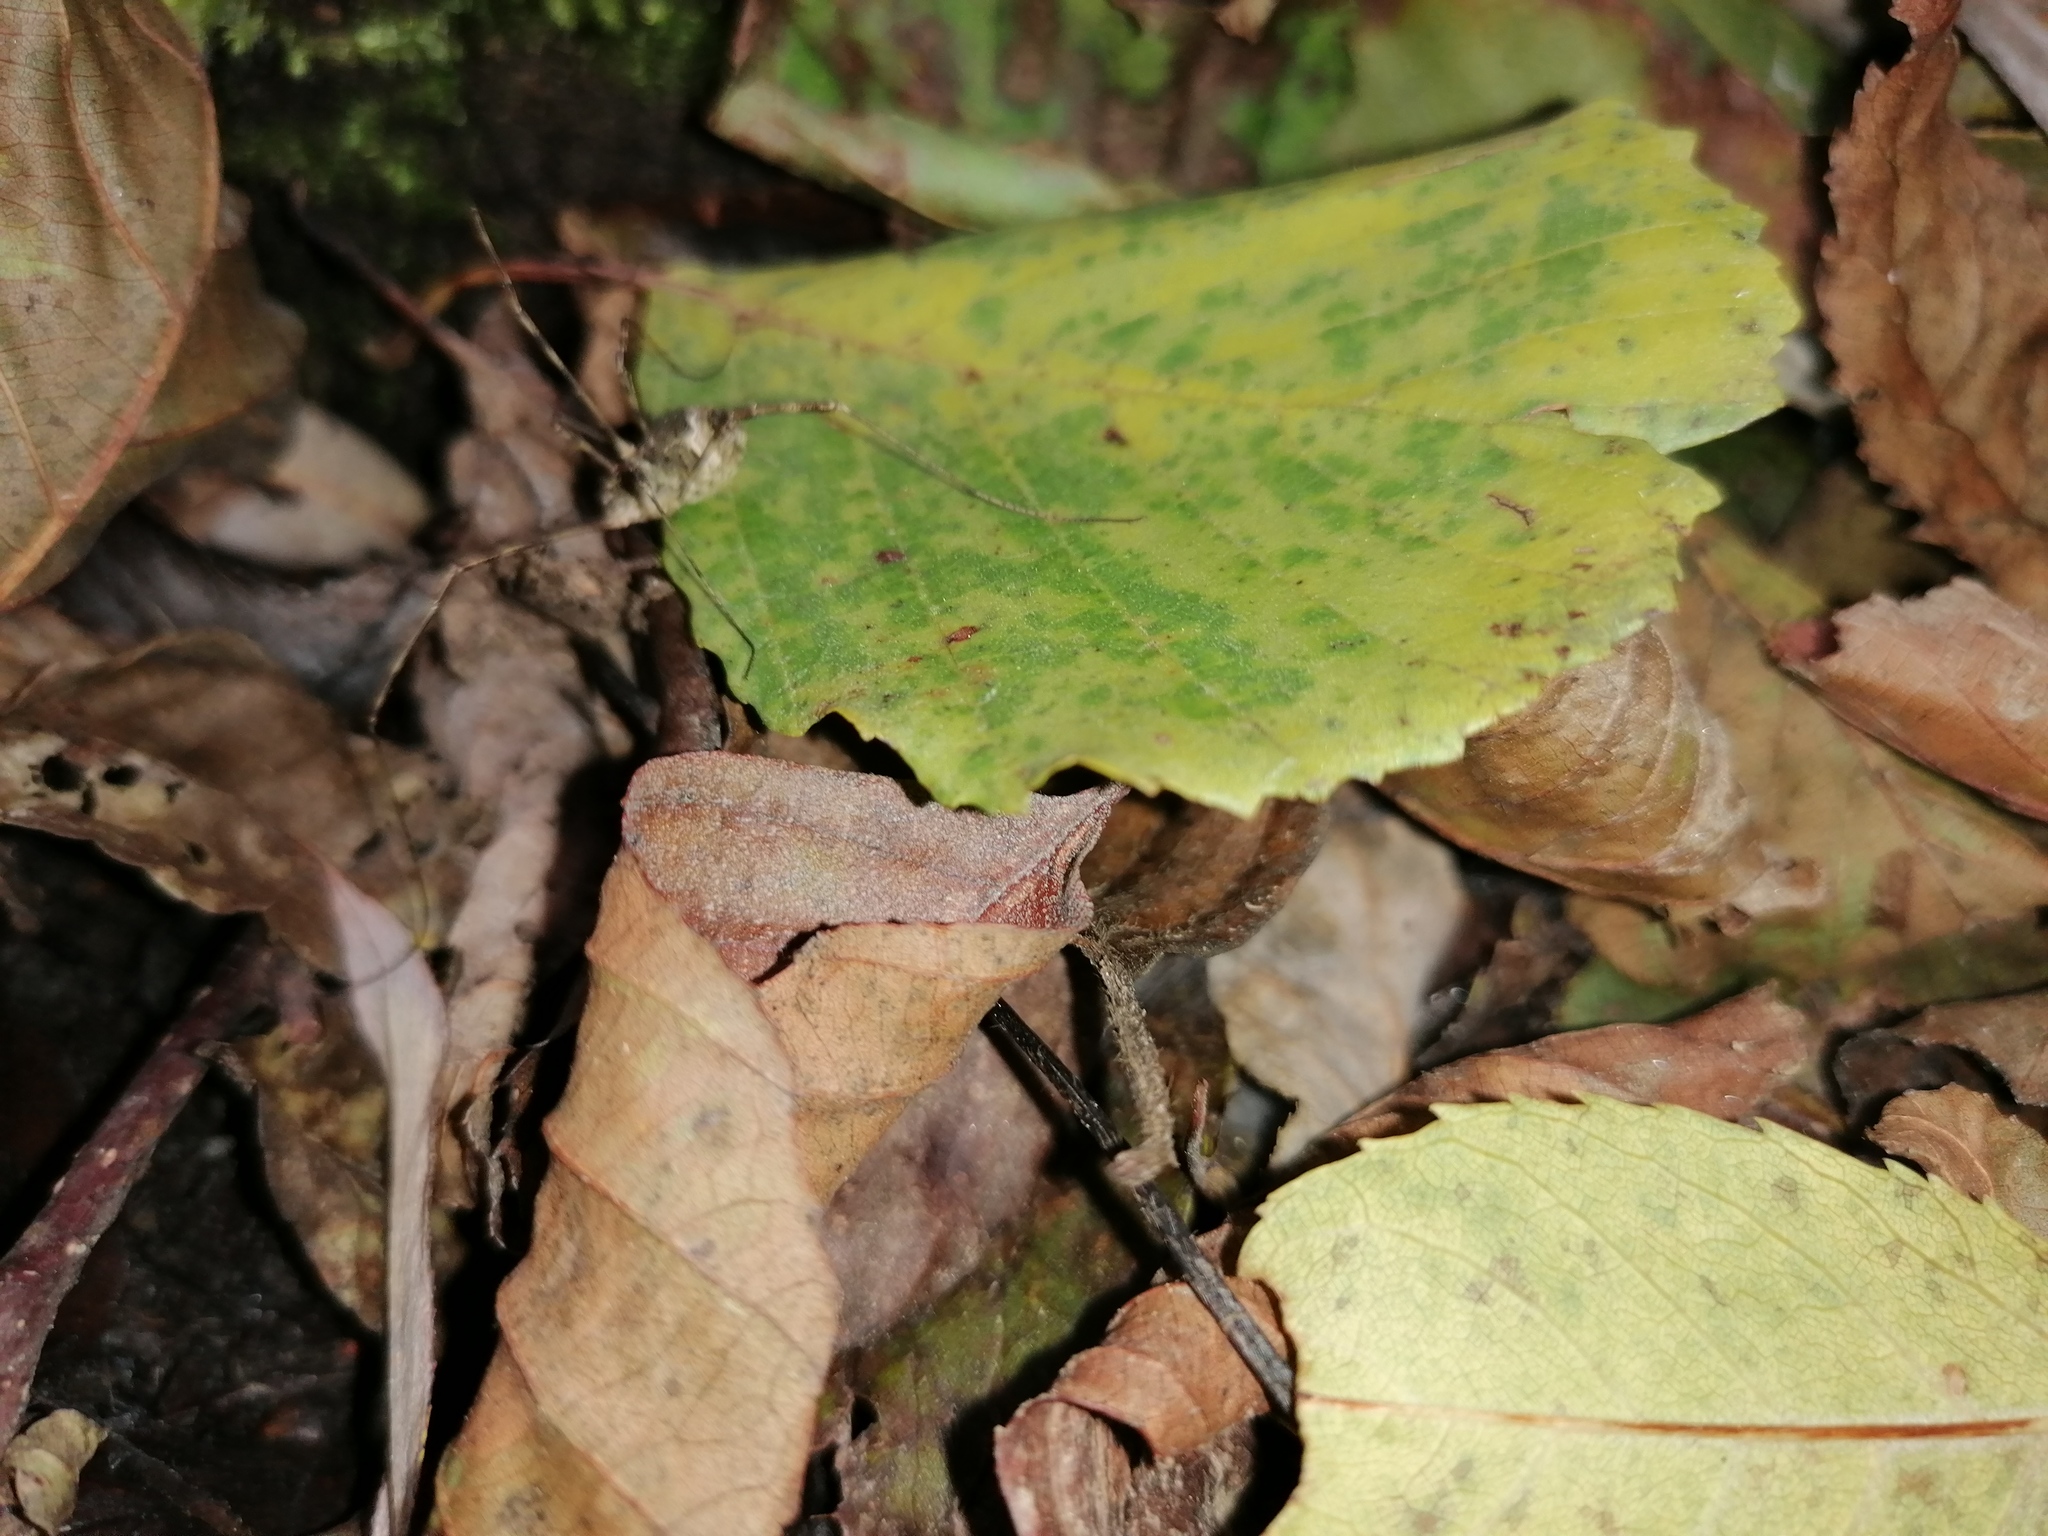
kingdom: Animalia
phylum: Arthropoda
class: Arachnida
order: Opiliones
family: Phalangiidae
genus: Lacinius
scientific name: Lacinius dentiger
